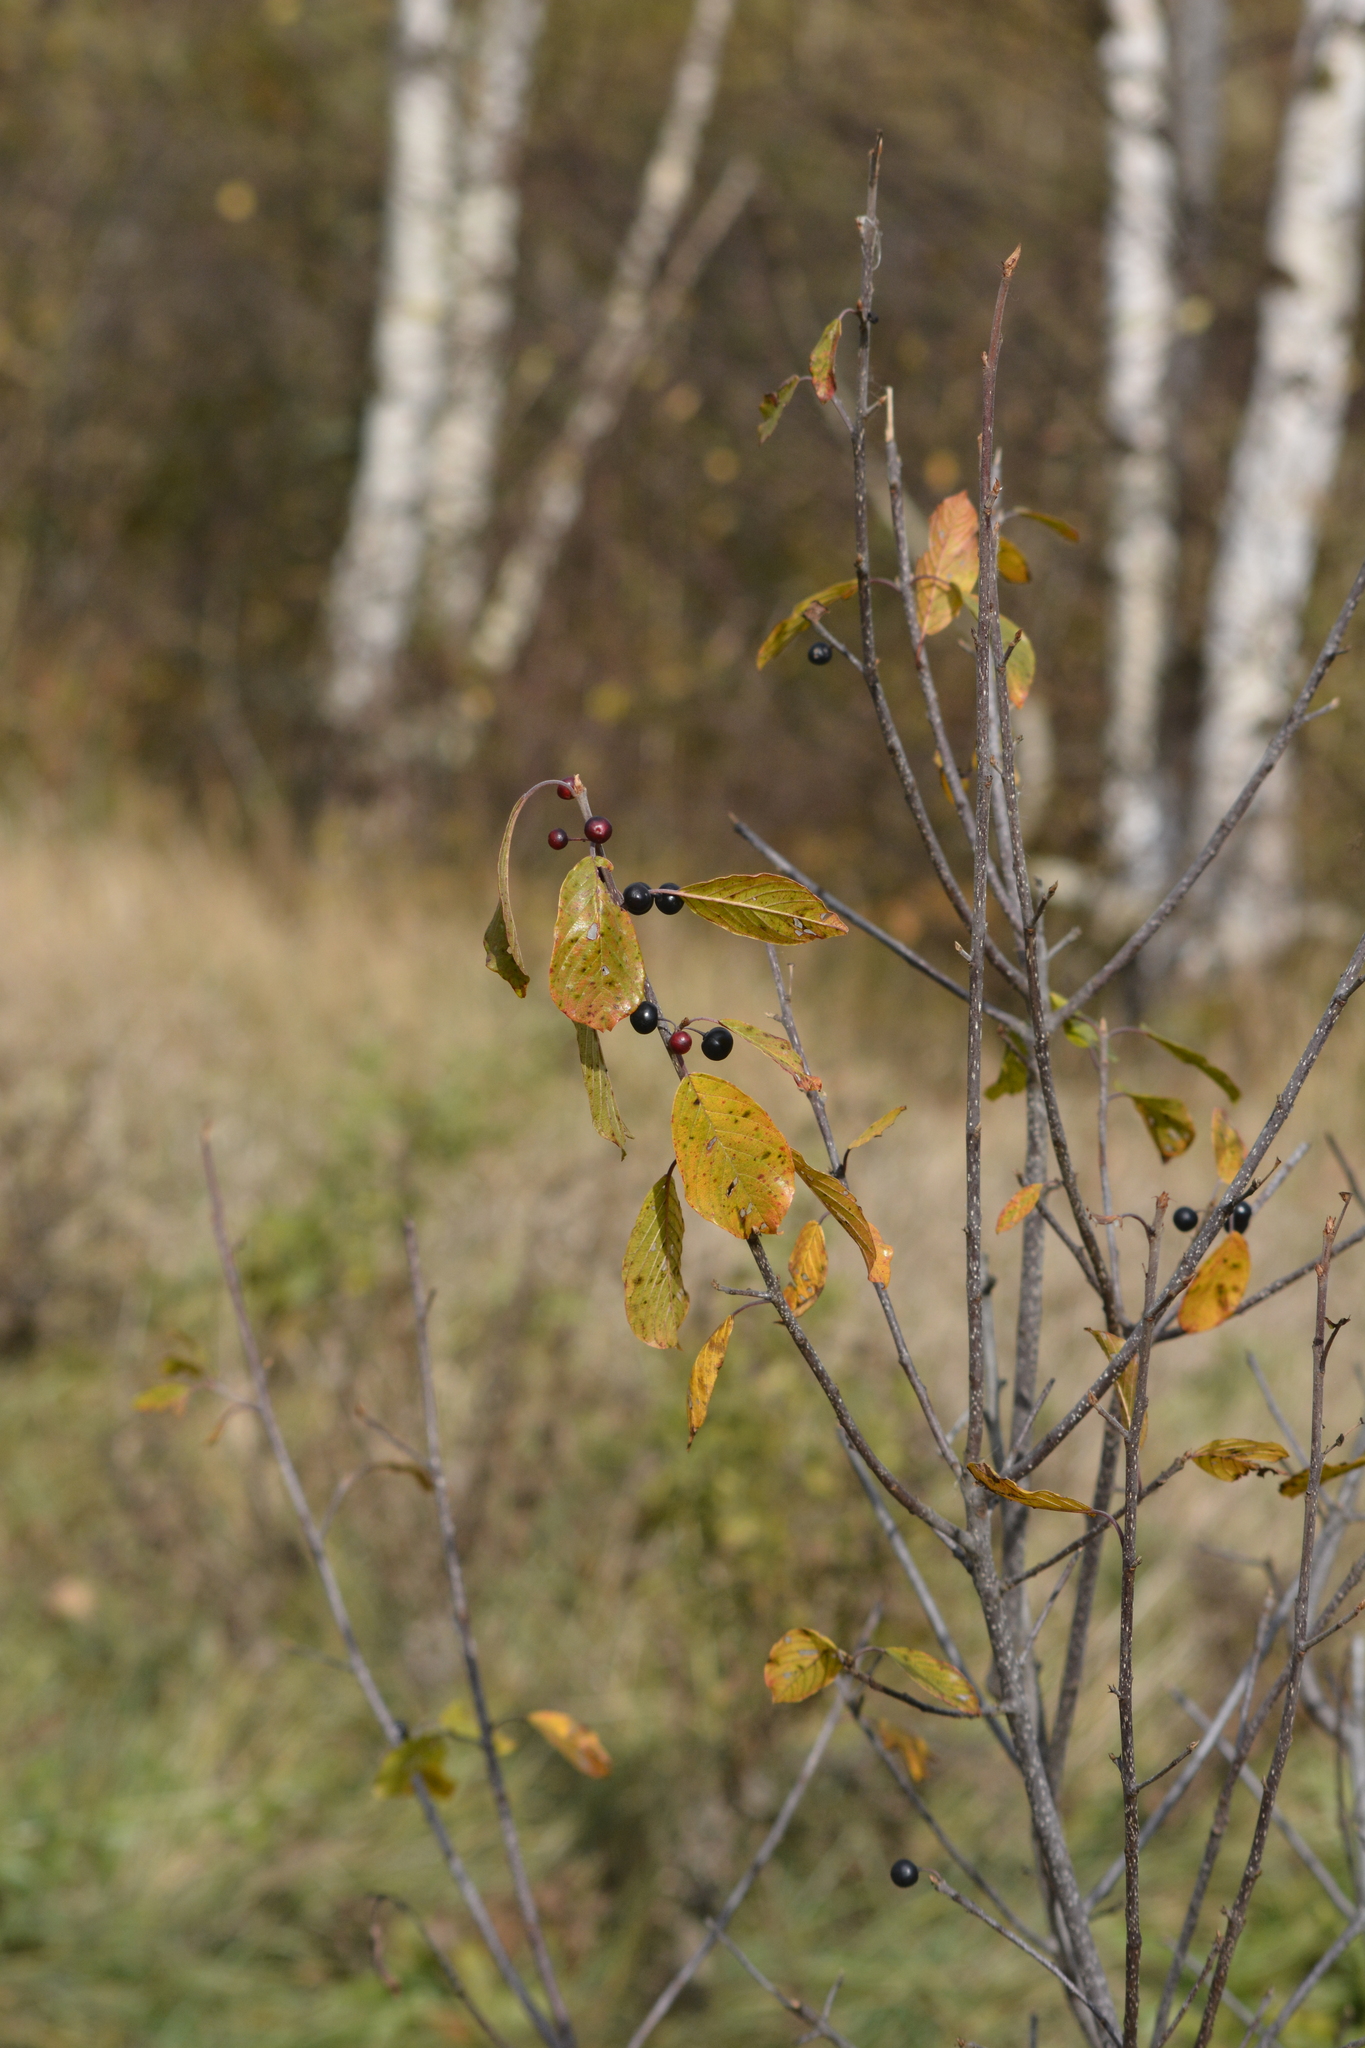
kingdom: Plantae
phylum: Tracheophyta
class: Magnoliopsida
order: Rosales
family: Rhamnaceae
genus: Frangula
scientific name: Frangula alnus
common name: Alder buckthorn
